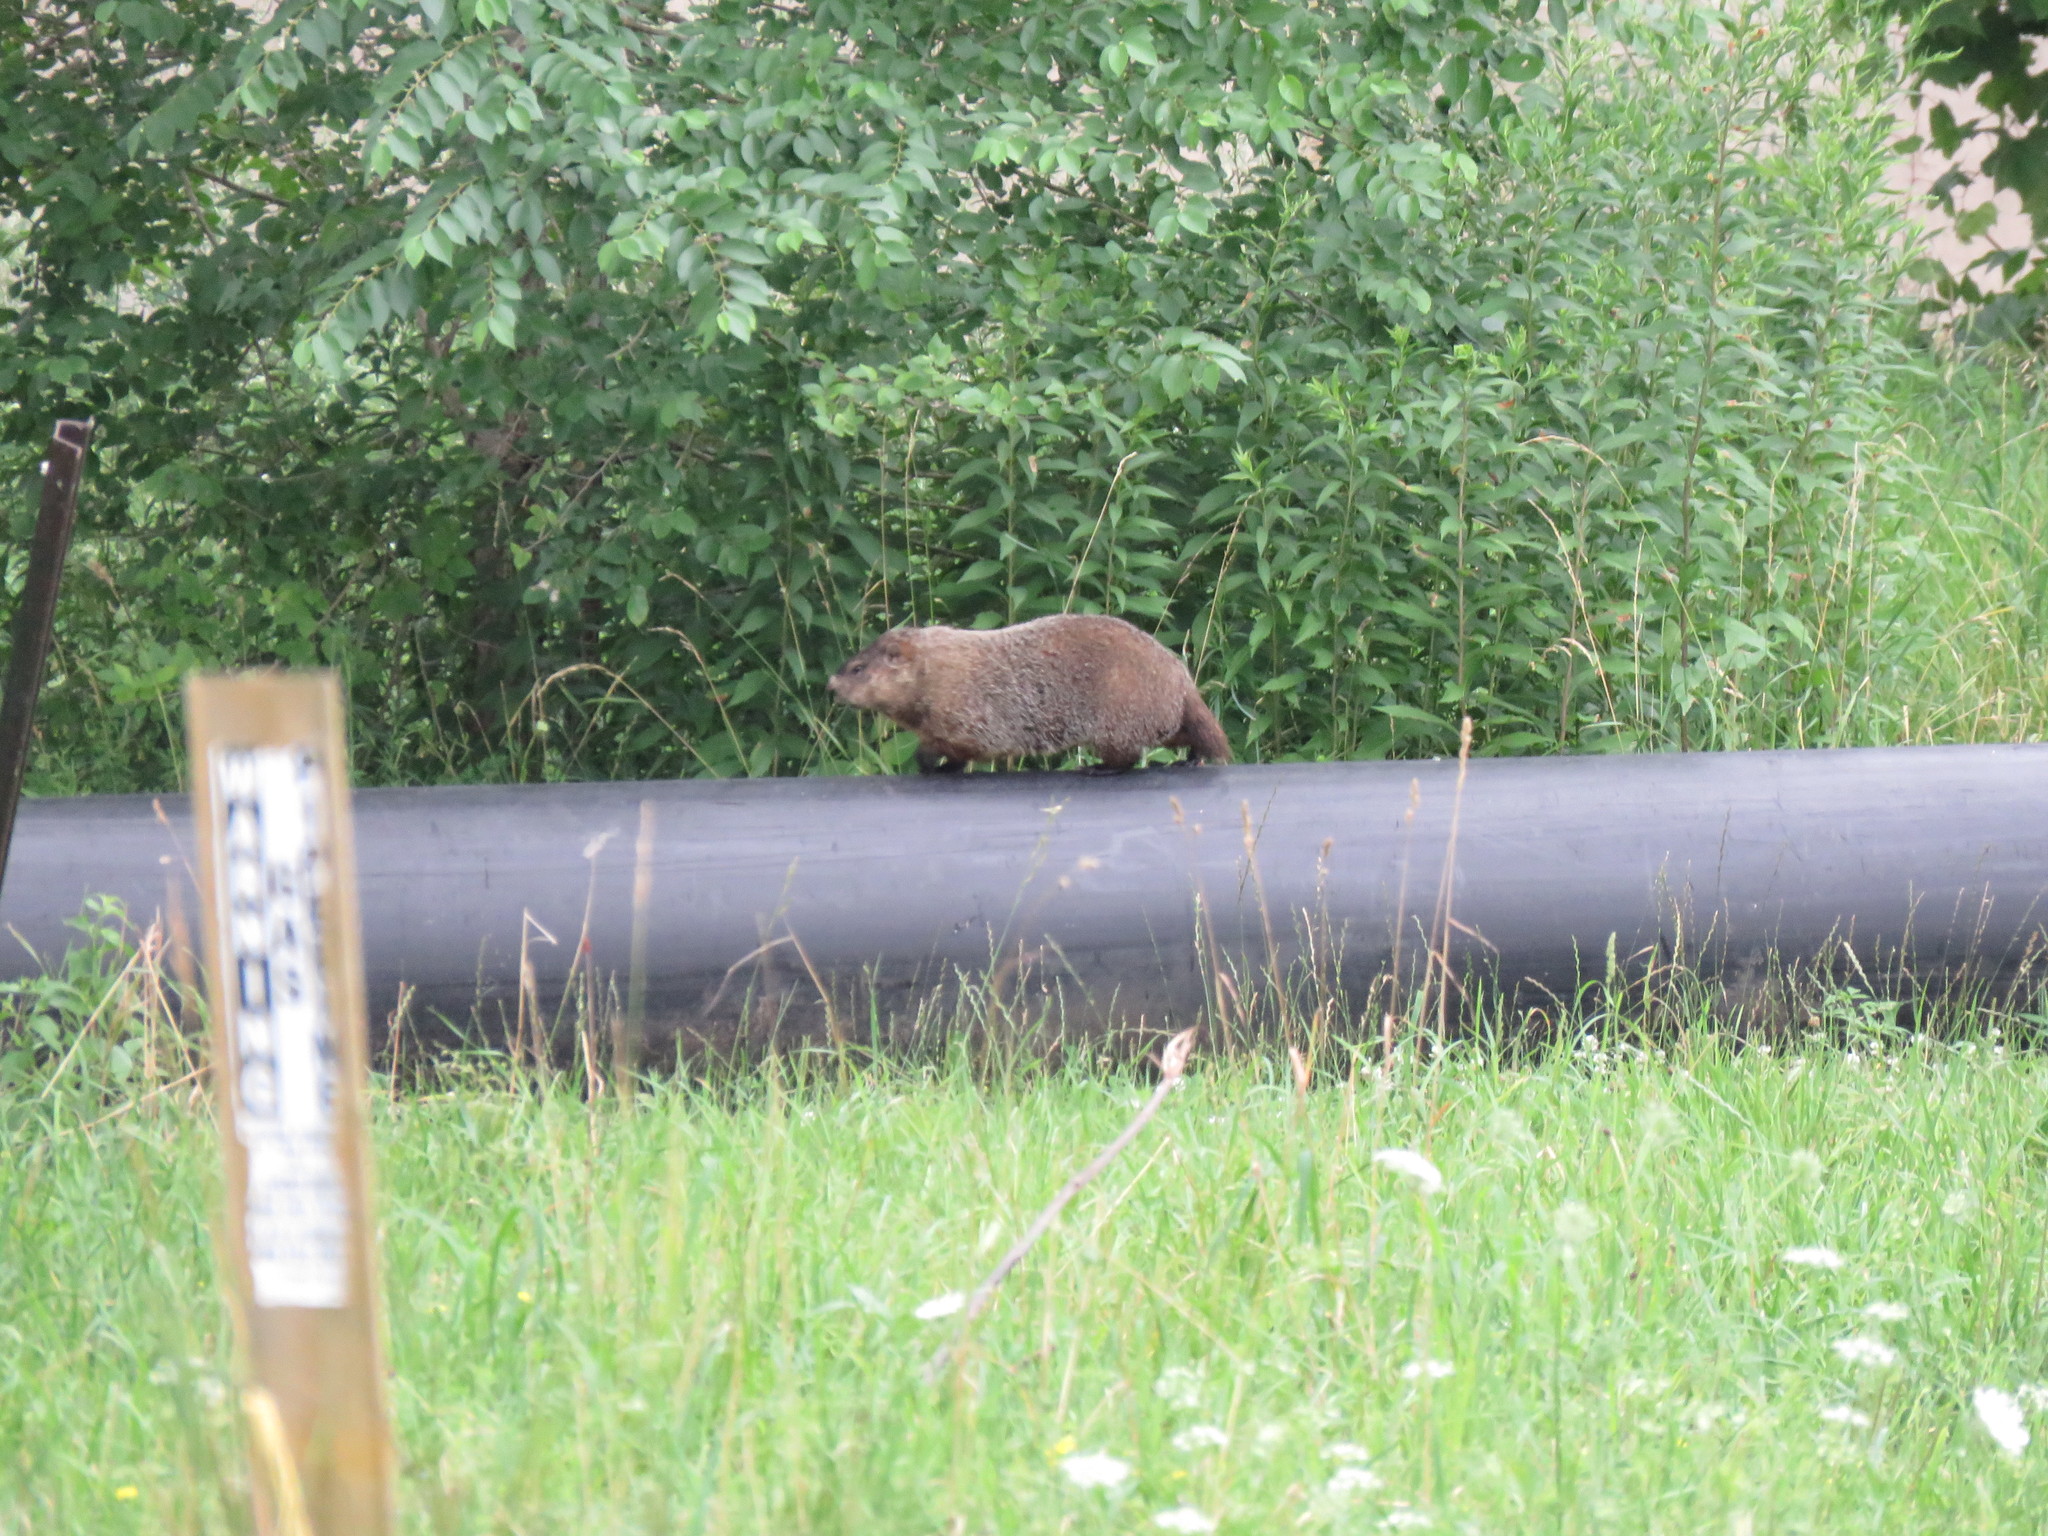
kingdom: Animalia
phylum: Chordata
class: Mammalia
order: Rodentia
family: Sciuridae
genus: Marmota
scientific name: Marmota monax
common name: Groundhog
